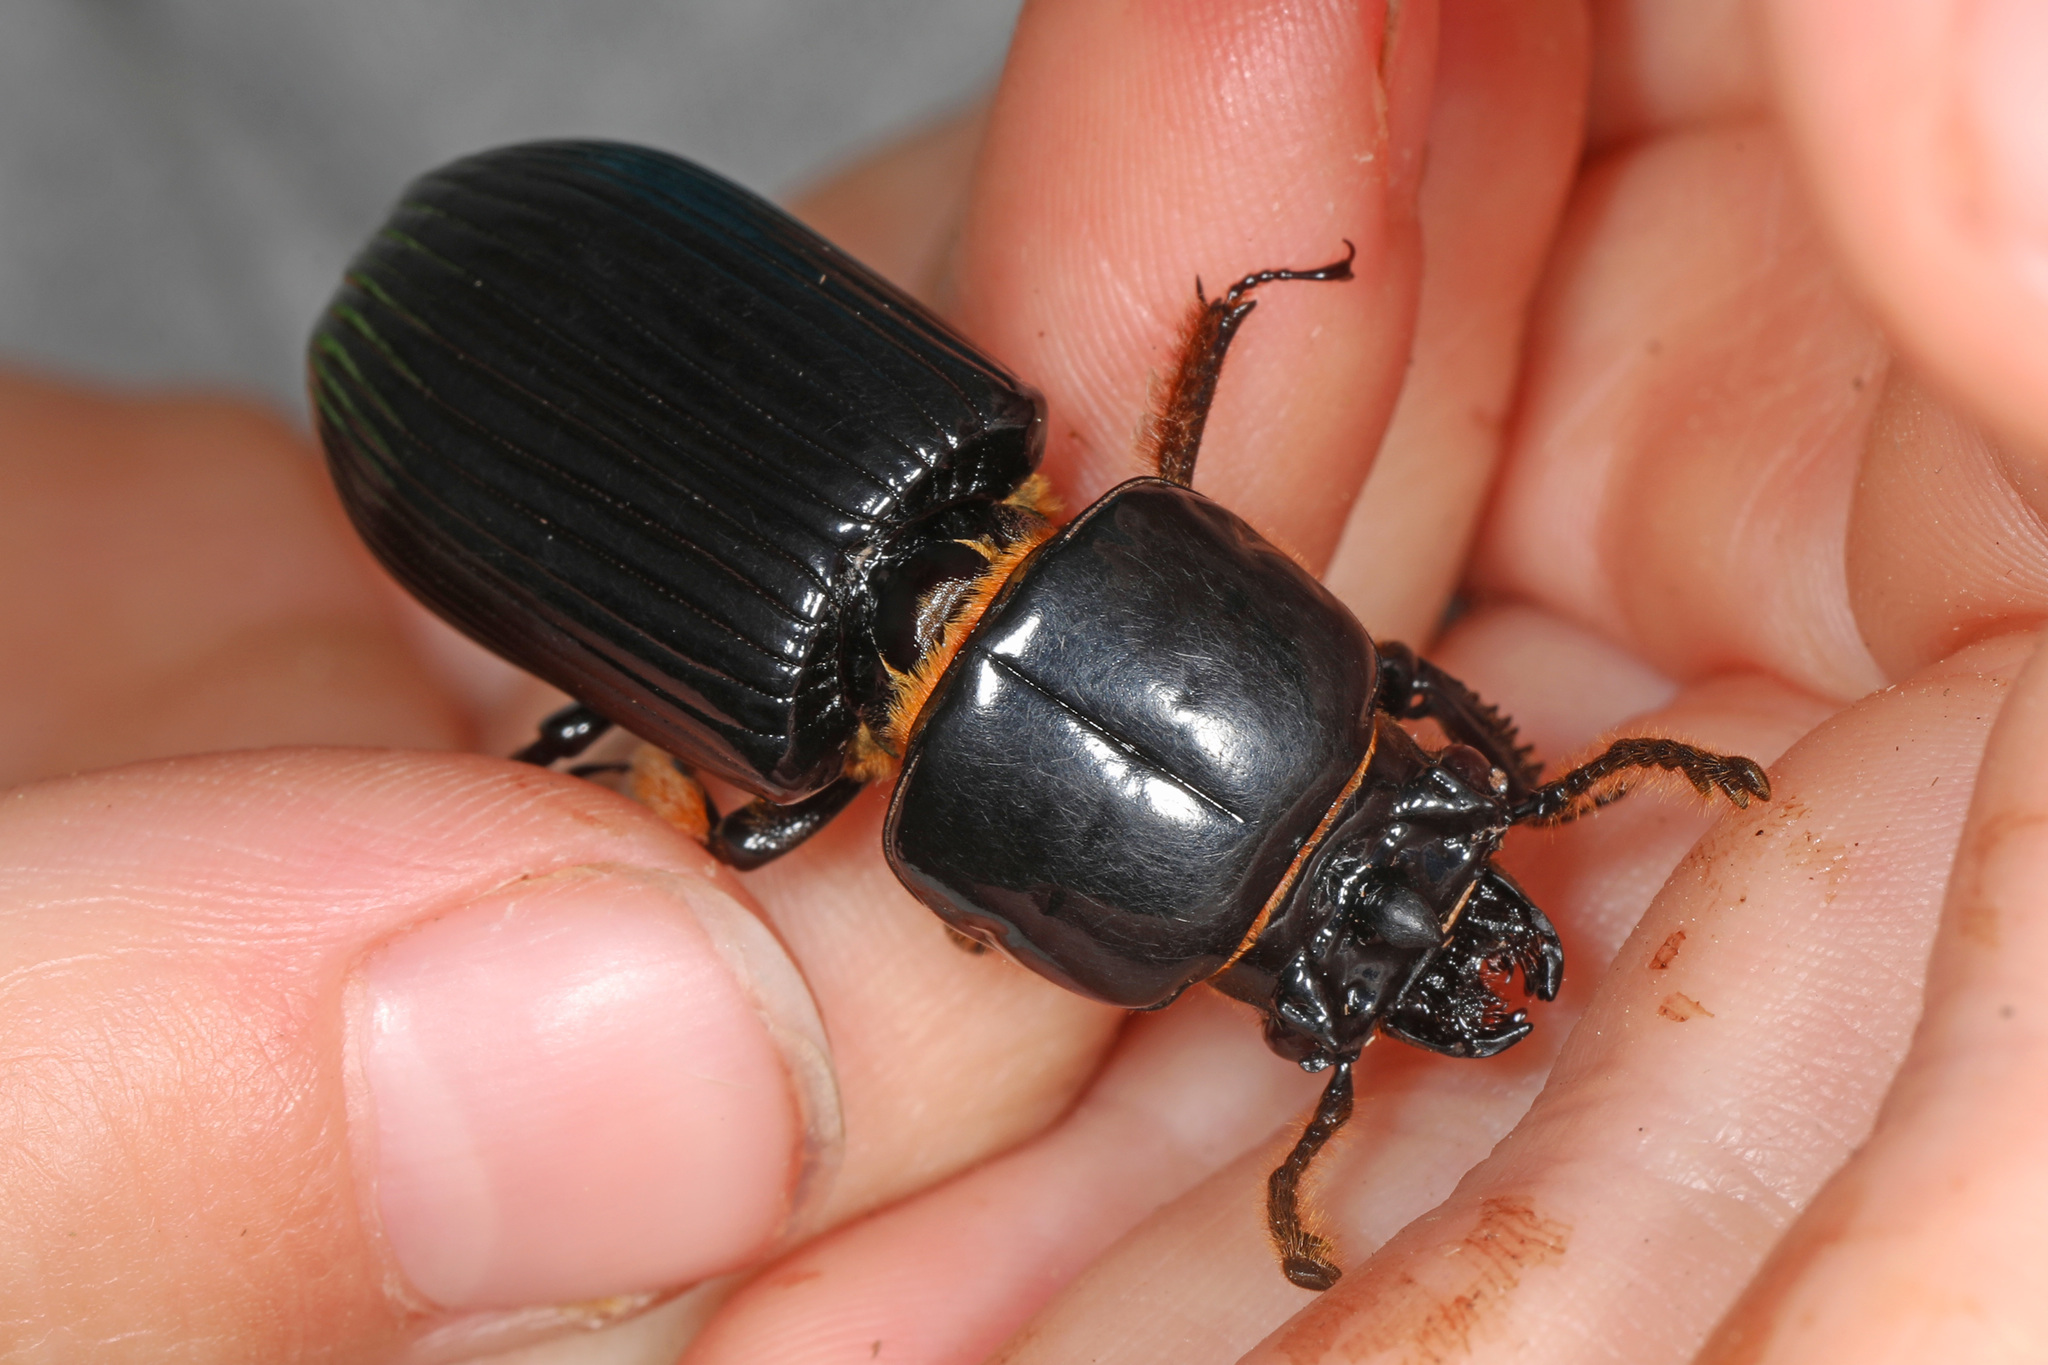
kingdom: Animalia
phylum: Arthropoda
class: Insecta
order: Coleoptera
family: Passalidae
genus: Odontotaenius
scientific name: Odontotaenius disjunctus
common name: Patent leather beetle
